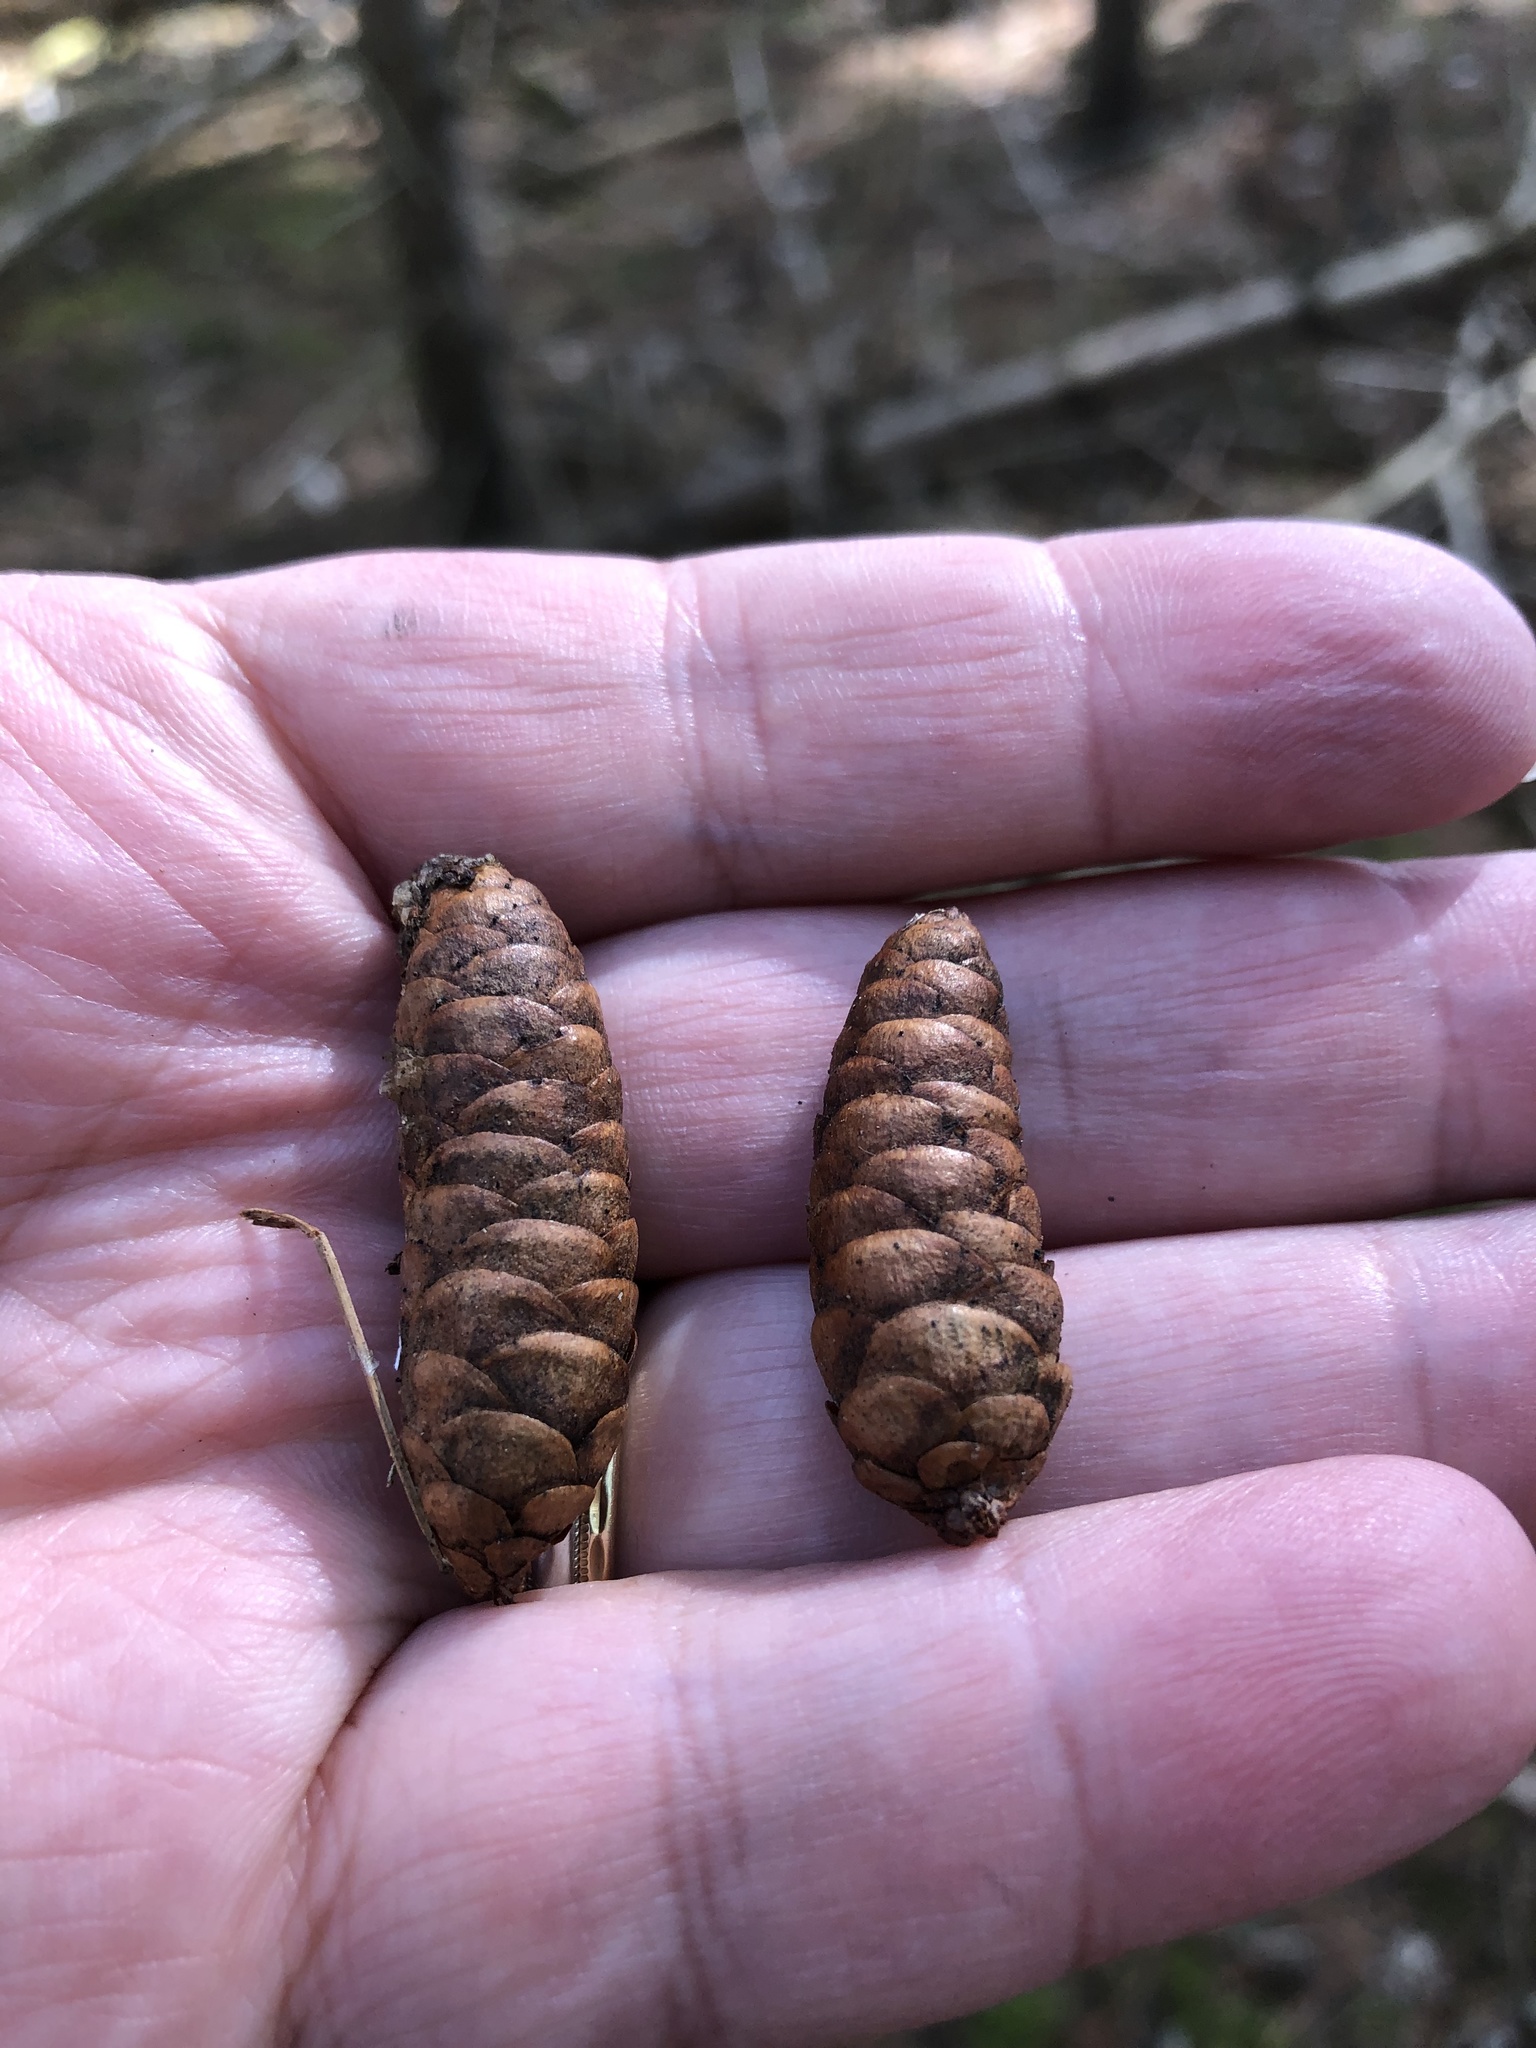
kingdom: Plantae
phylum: Tracheophyta
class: Pinopsida
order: Pinales
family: Pinaceae
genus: Picea
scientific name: Picea glauca
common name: White spruce
